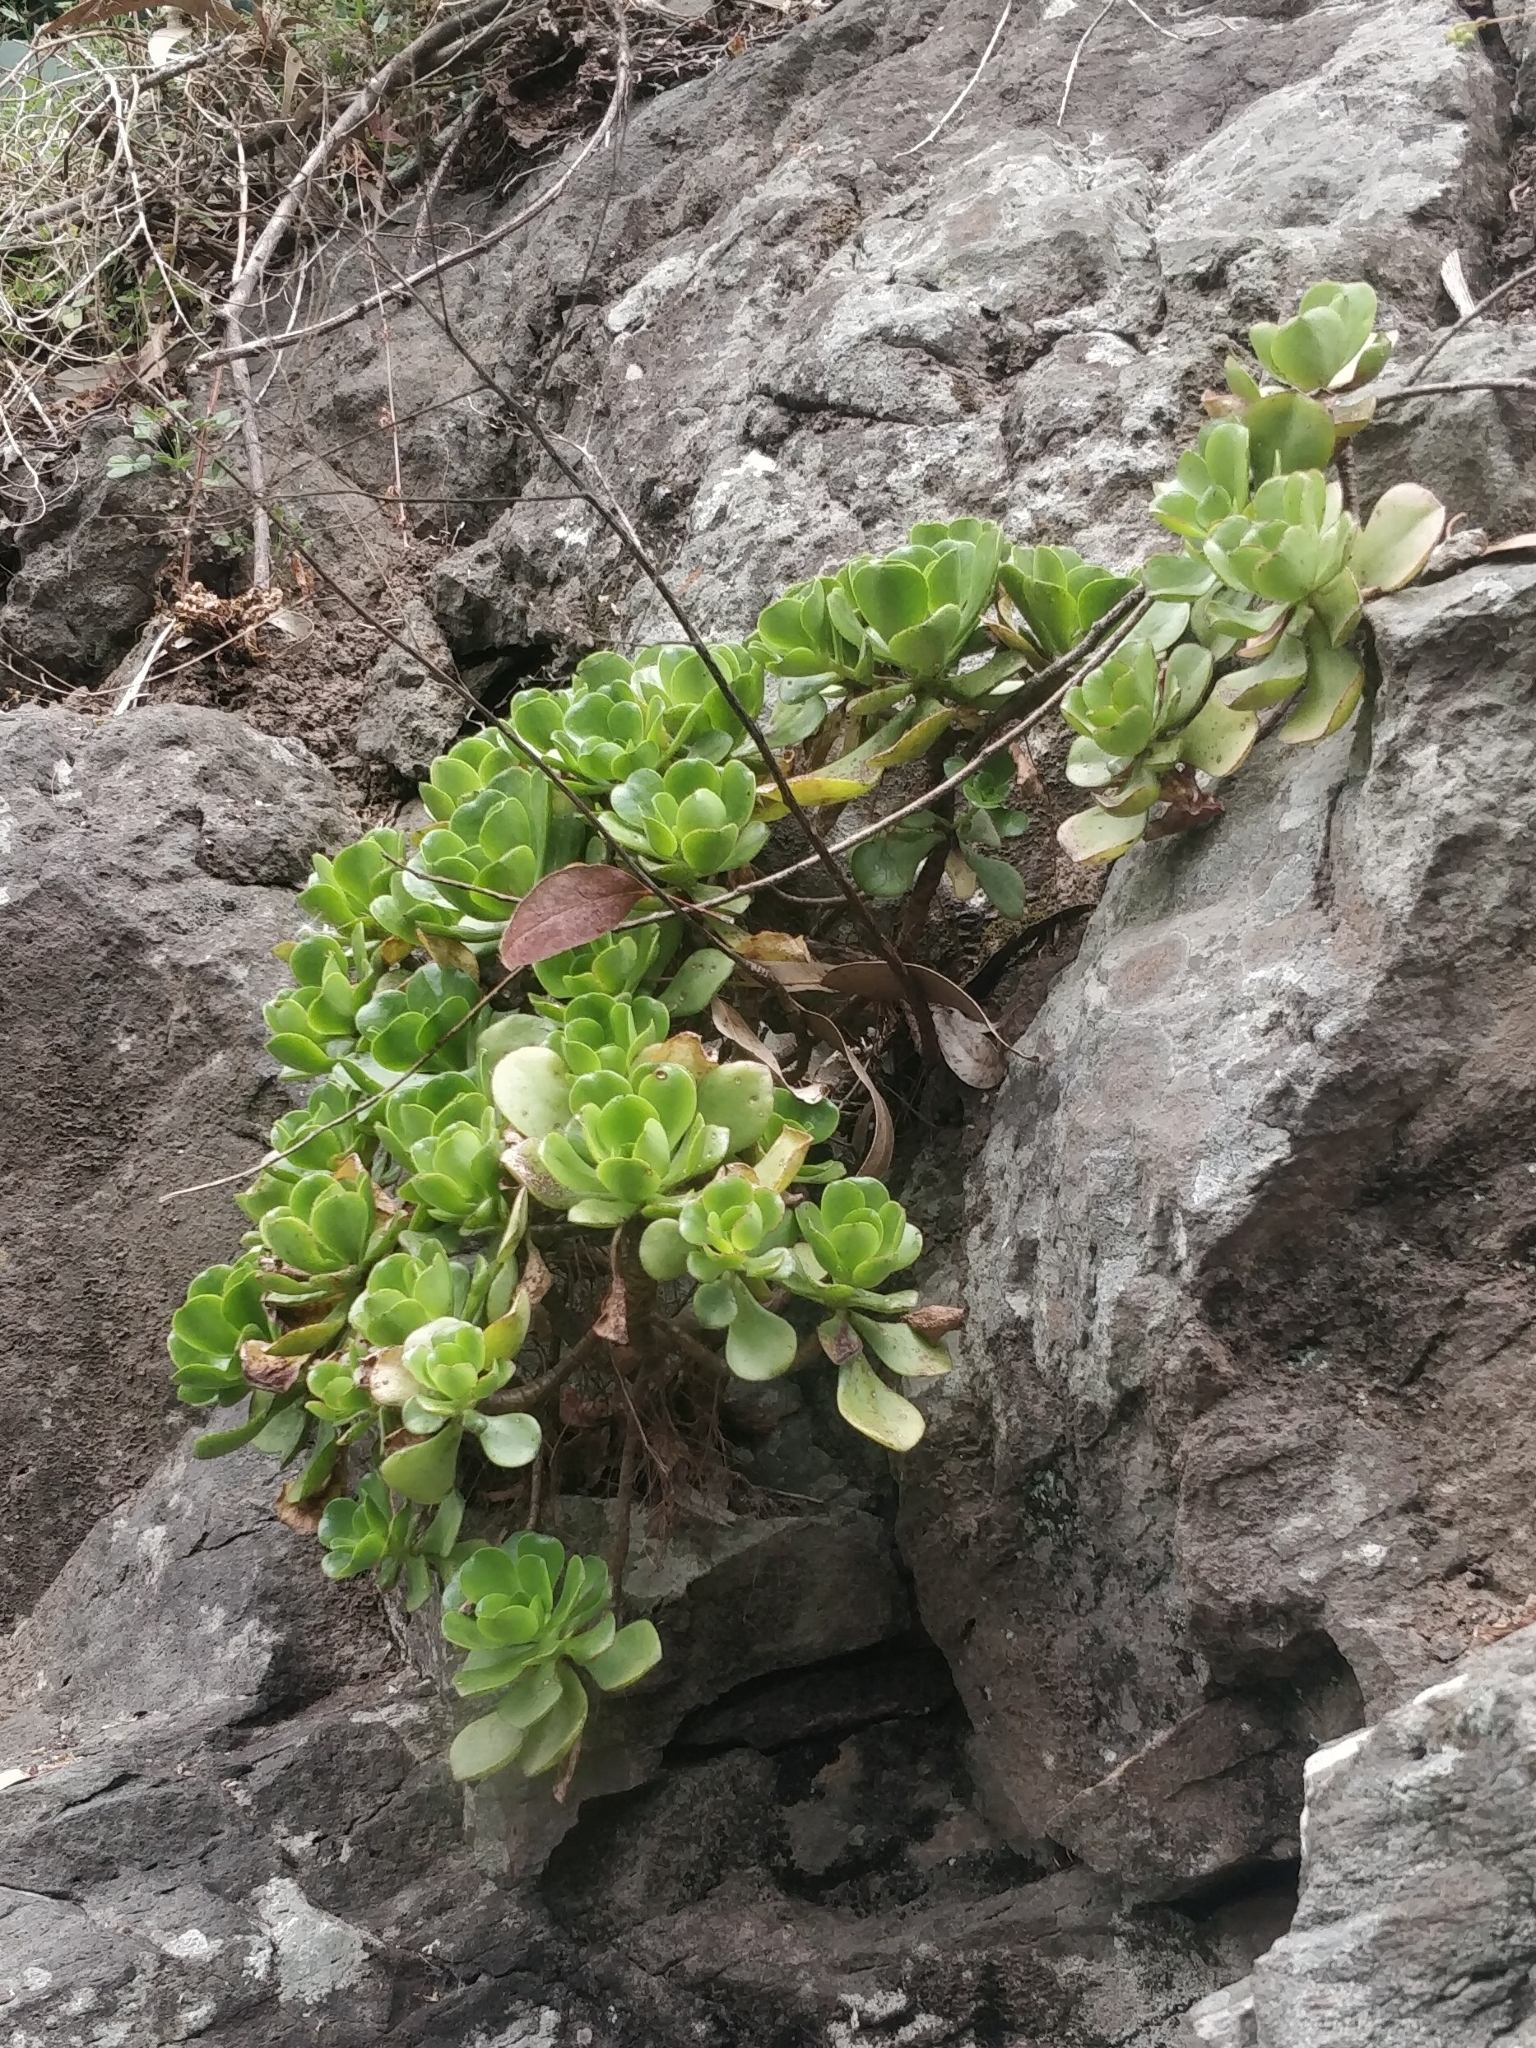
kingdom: Plantae
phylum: Tracheophyta
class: Magnoliopsida
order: Saxifragales
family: Crassulaceae
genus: Aeonium
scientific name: Aeonium glutinosum
